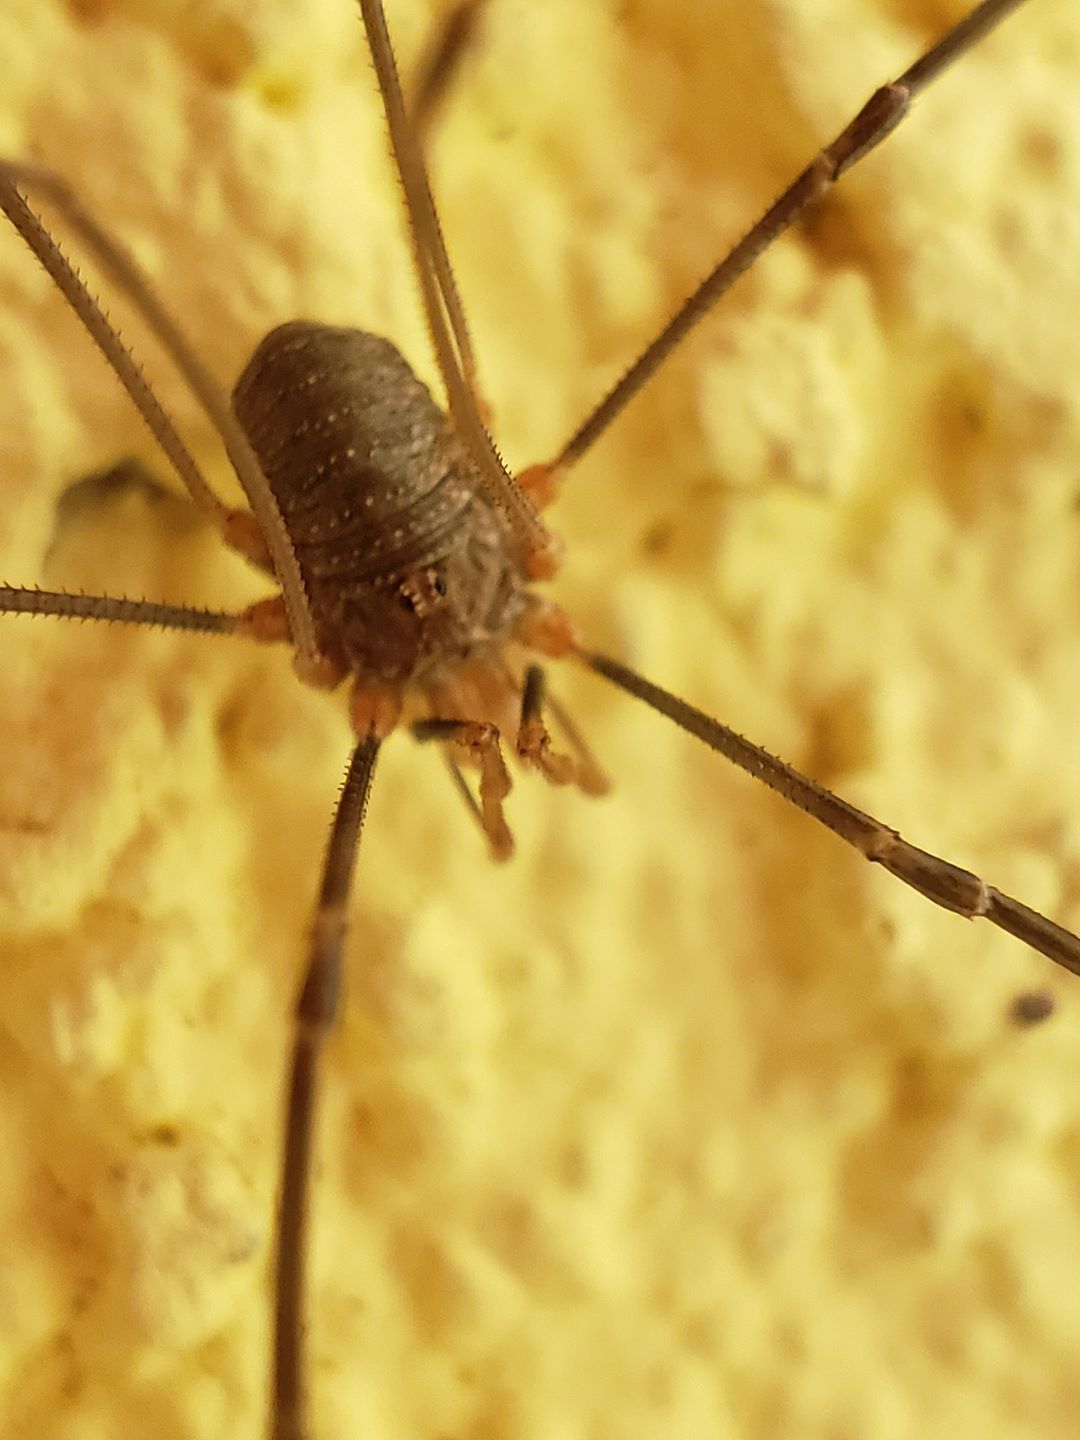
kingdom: Animalia
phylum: Arthropoda
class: Arachnida
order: Opiliones
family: Phalangiidae
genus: Phalangium
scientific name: Phalangium opilio
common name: Daddy longleg
